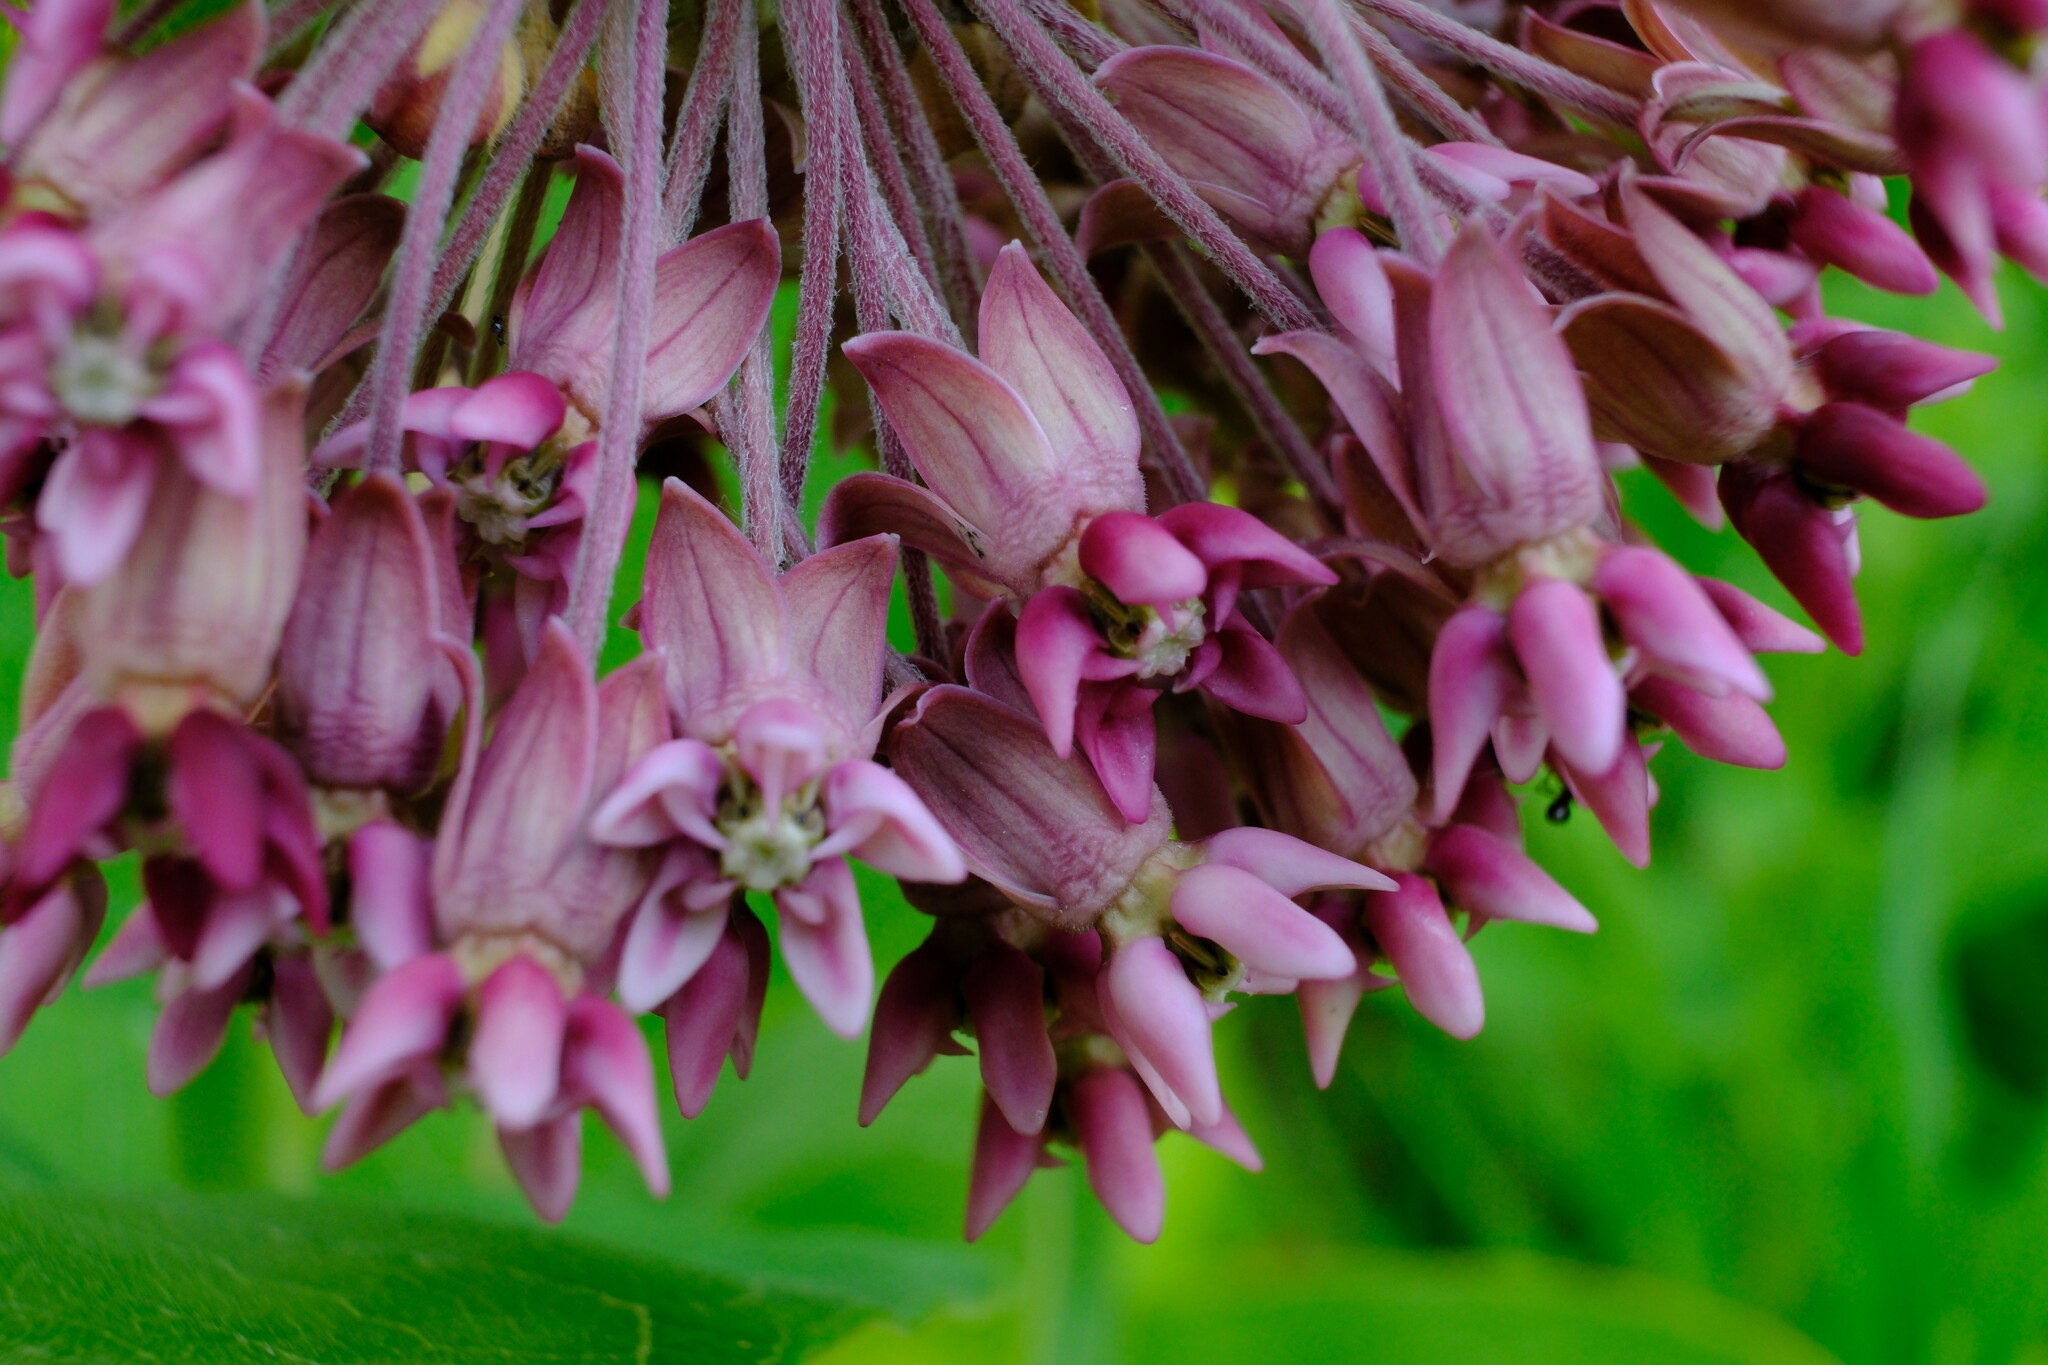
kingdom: Plantae
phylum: Tracheophyta
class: Magnoliopsida
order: Gentianales
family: Apocynaceae
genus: Asclepias
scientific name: Asclepias syriaca
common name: Common milkweed
